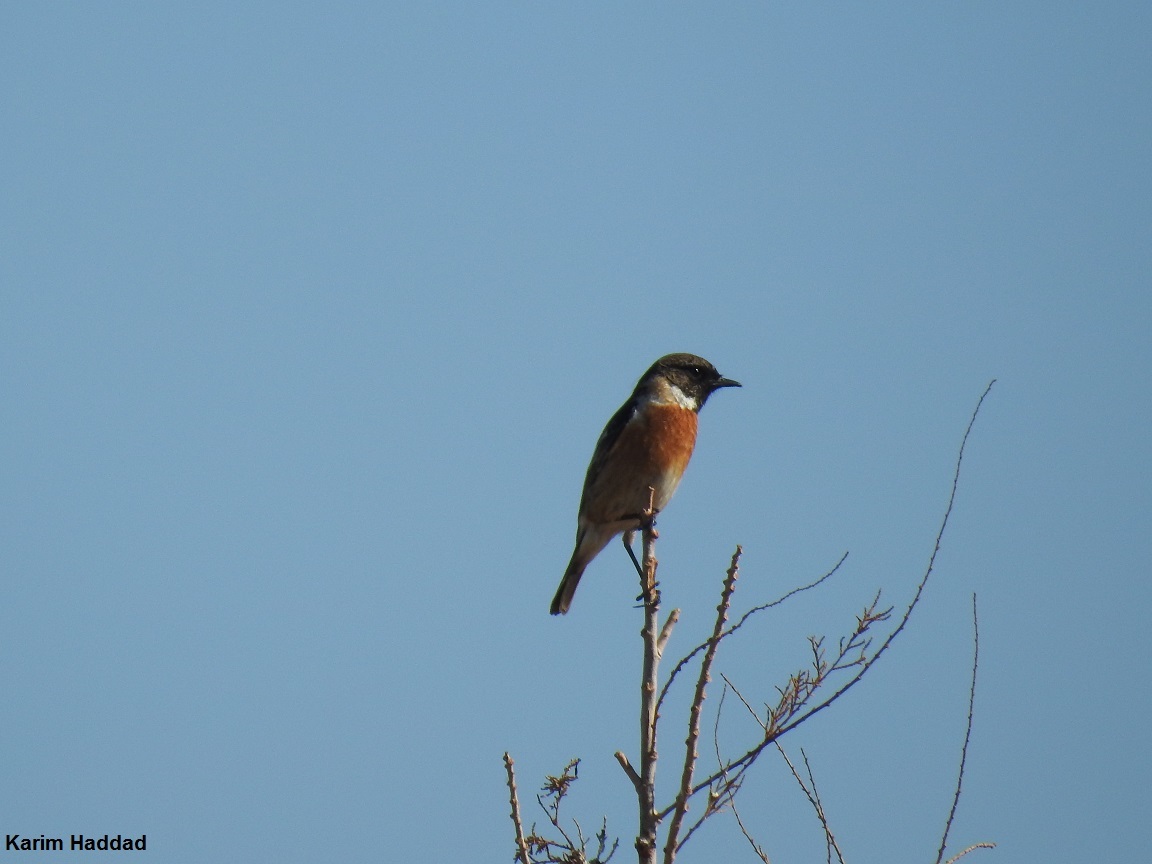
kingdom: Animalia
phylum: Chordata
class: Aves
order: Passeriformes
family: Muscicapidae
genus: Saxicola
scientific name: Saxicola rubicola
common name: European stonechat
